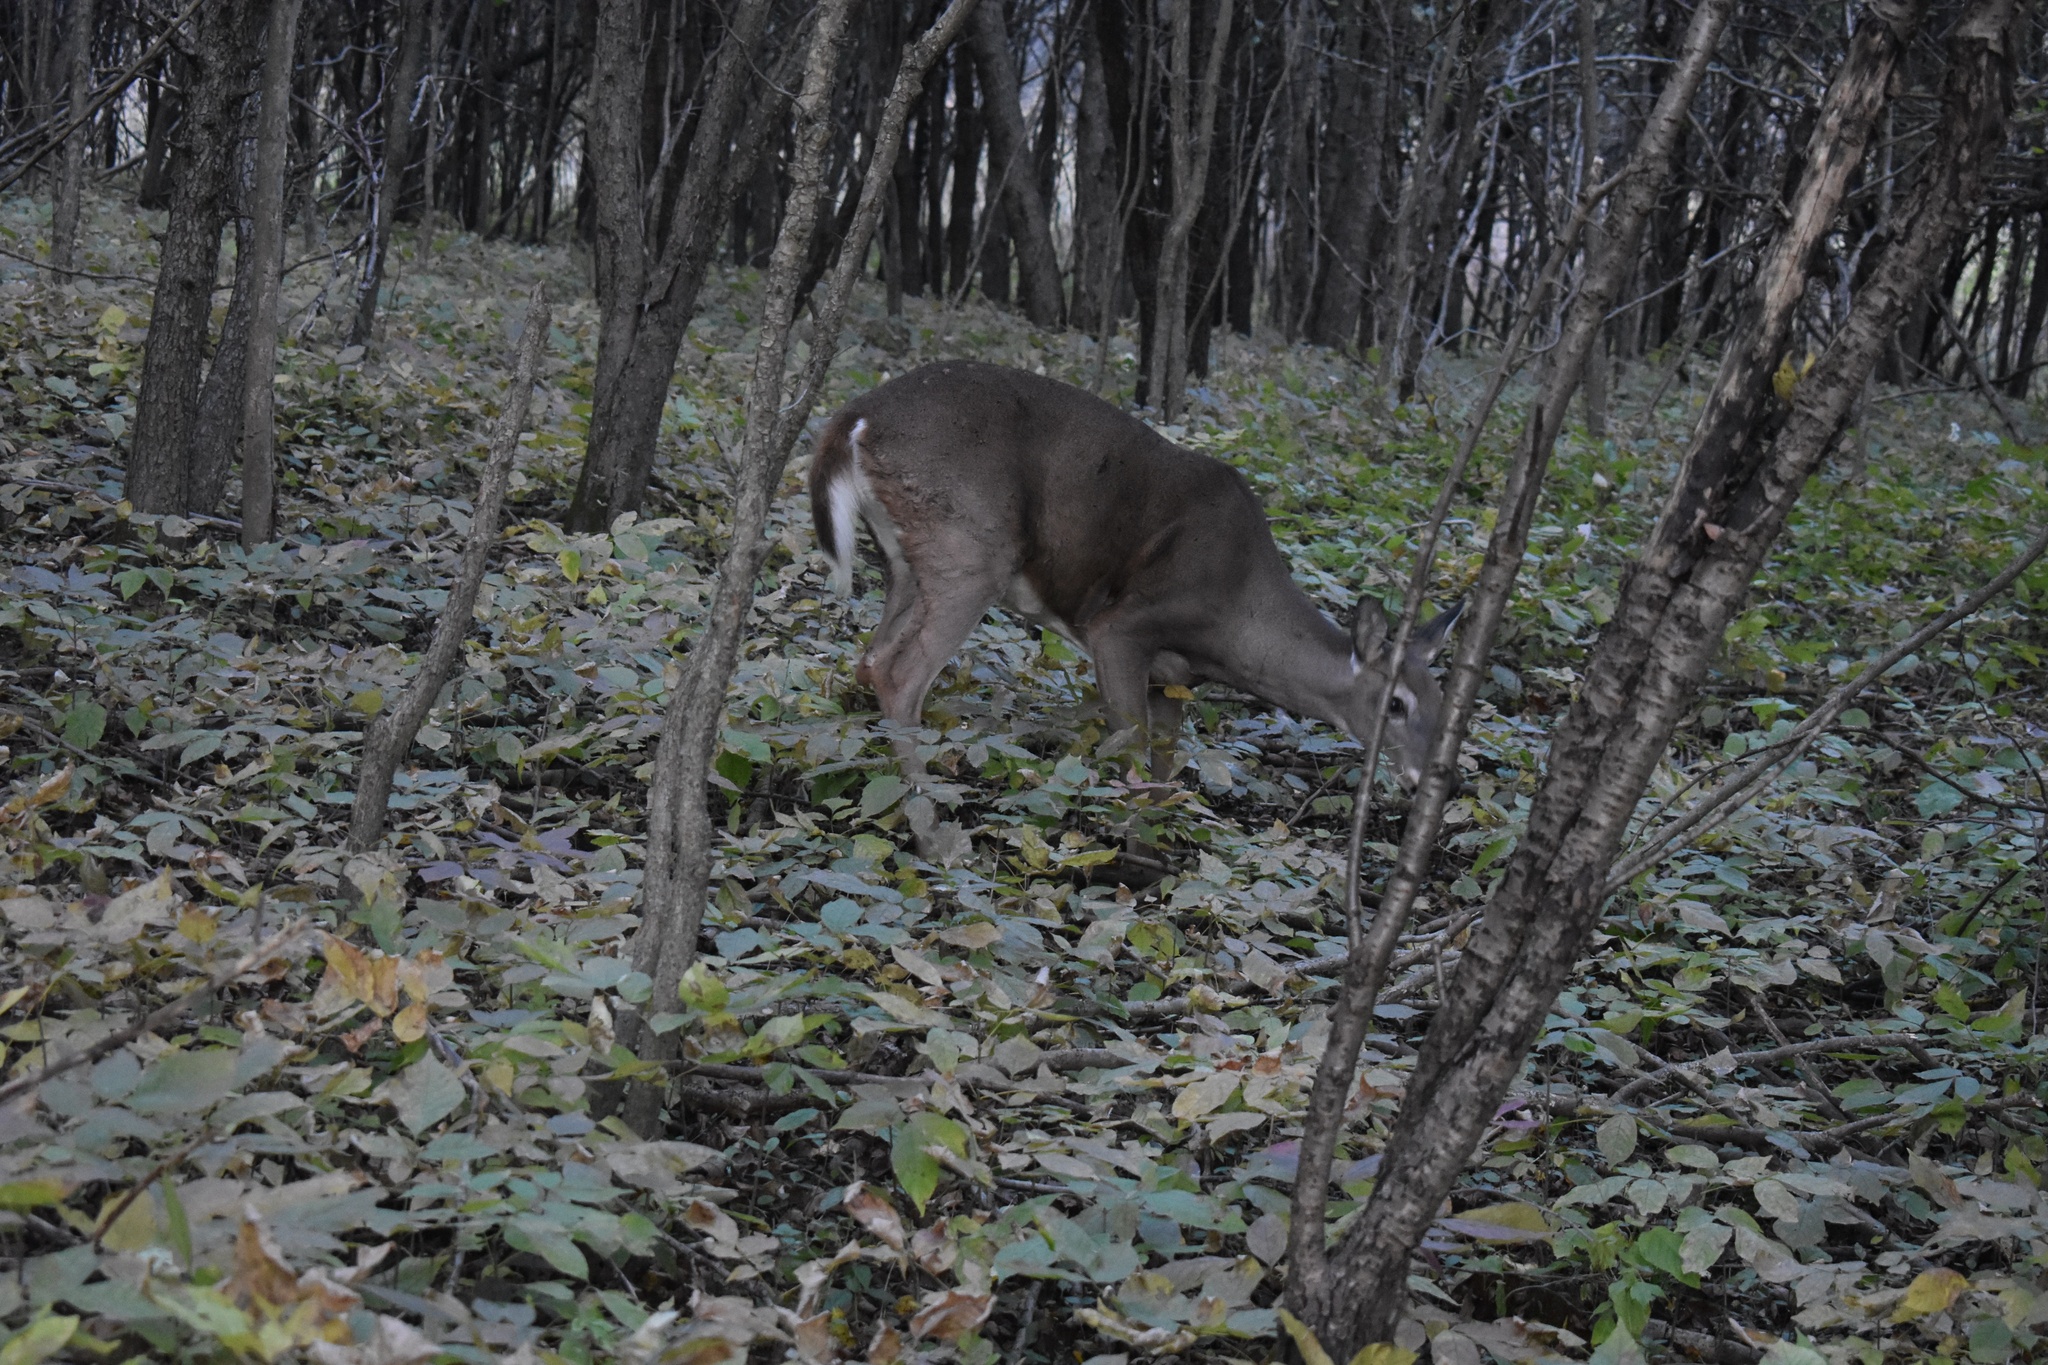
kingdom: Animalia
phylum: Chordata
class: Mammalia
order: Artiodactyla
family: Cervidae
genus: Odocoileus
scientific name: Odocoileus virginianus
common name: White-tailed deer
